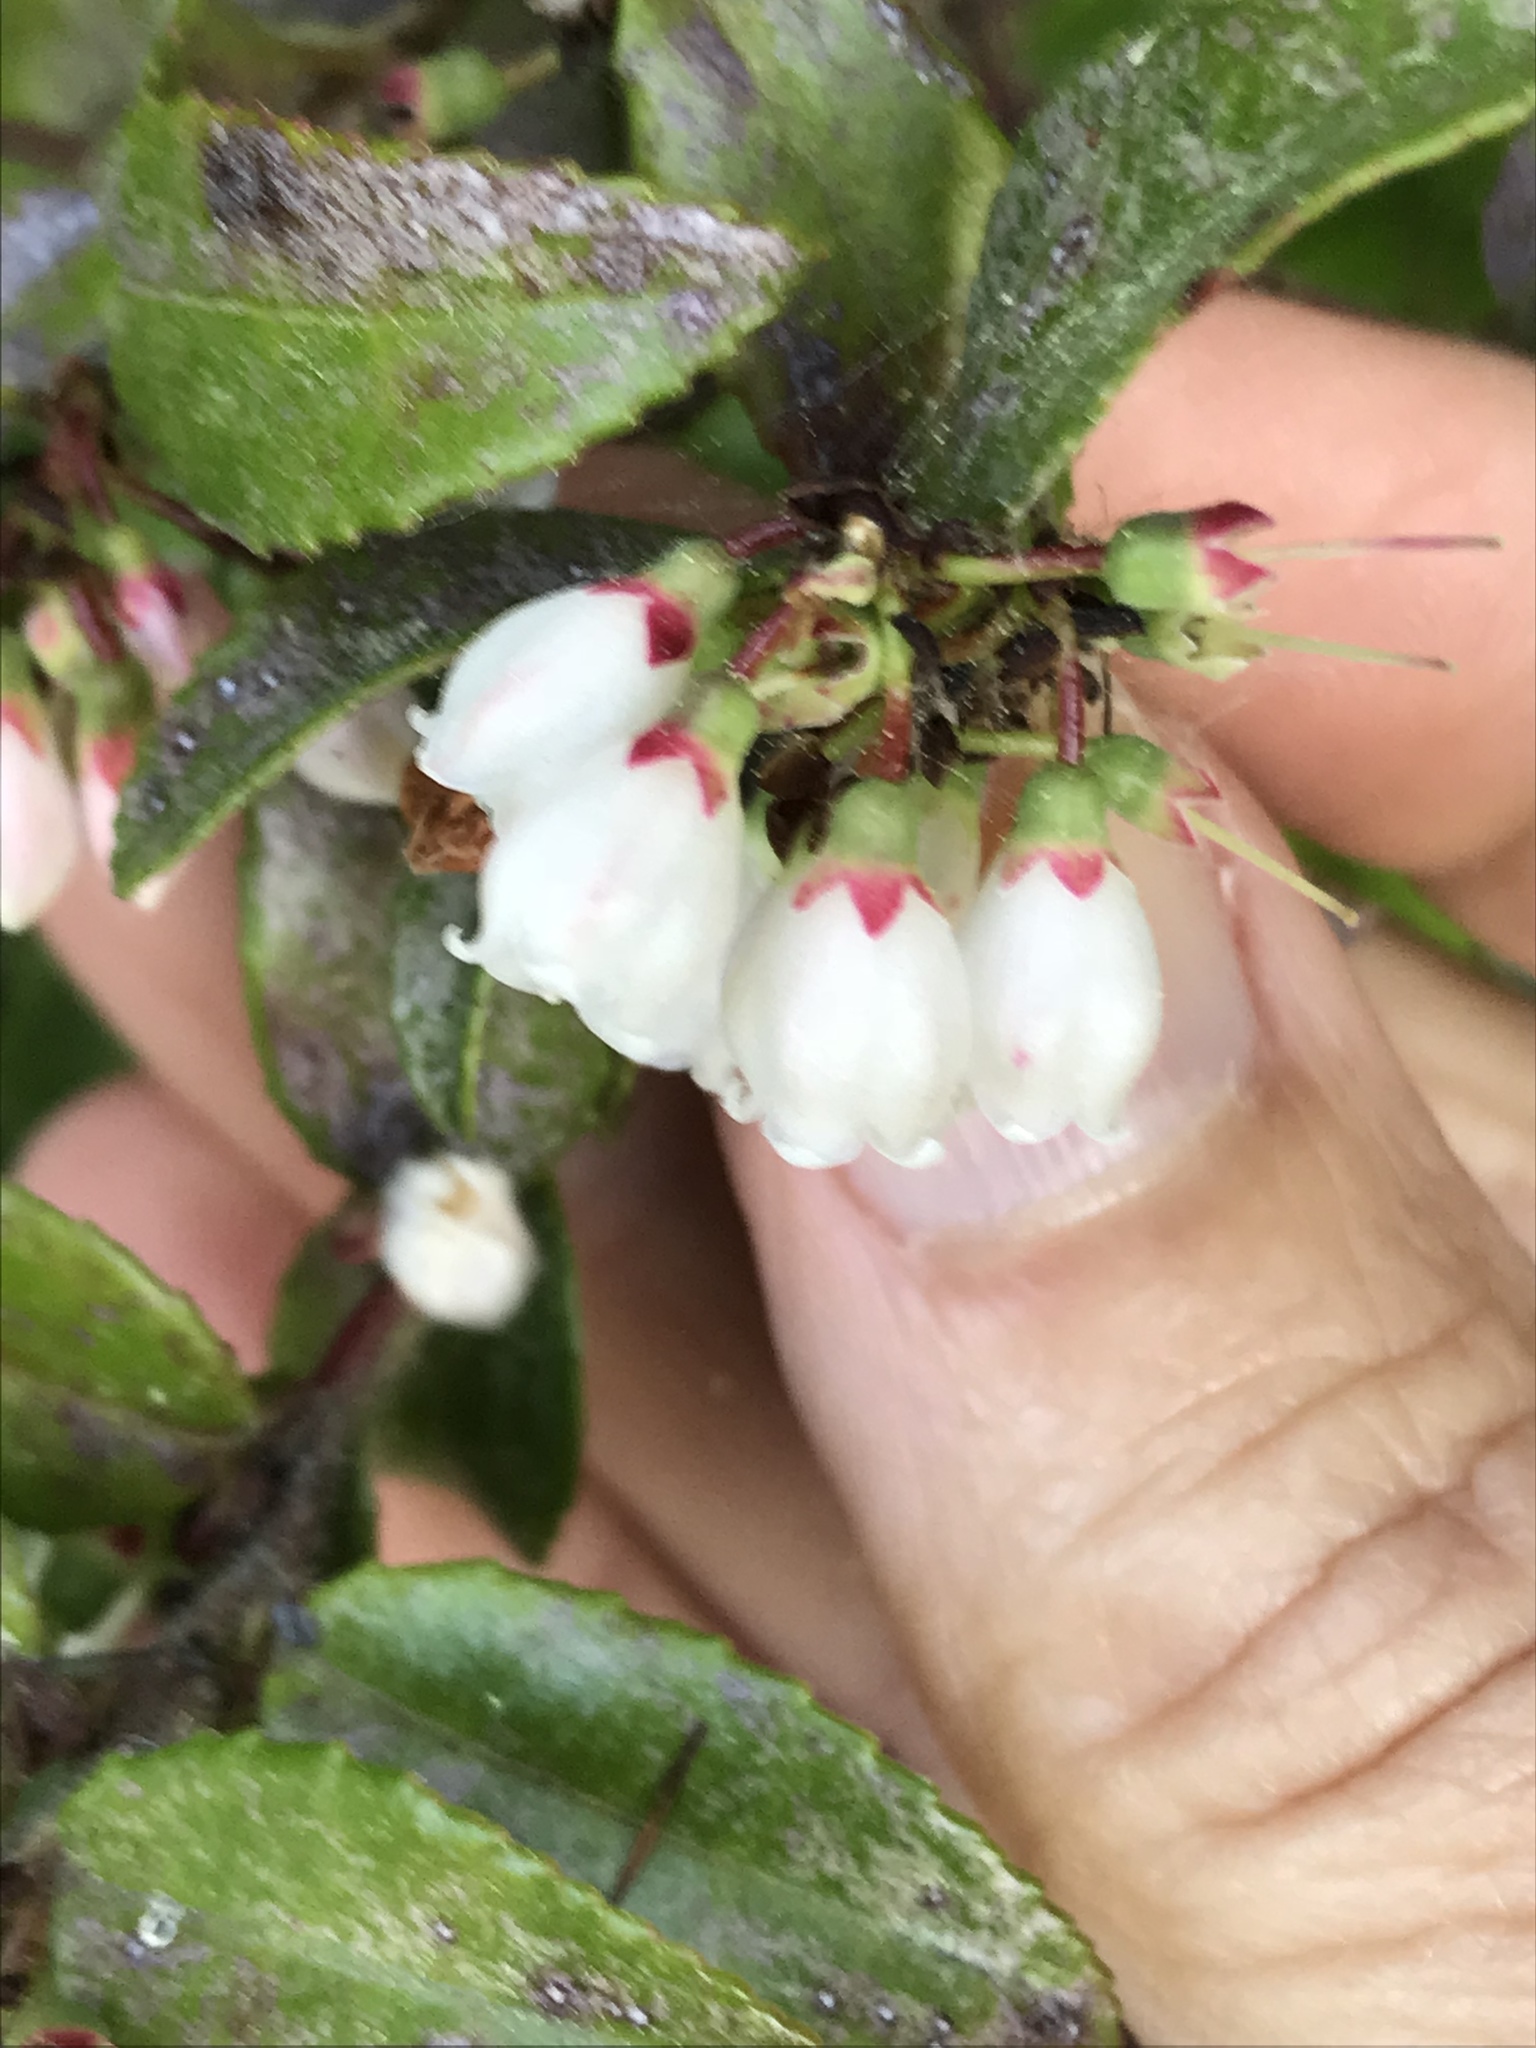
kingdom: Plantae
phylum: Tracheophyta
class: Magnoliopsida
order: Ericales
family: Ericaceae
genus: Vaccinium
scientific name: Vaccinium ovatum
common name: California-huckleberry
